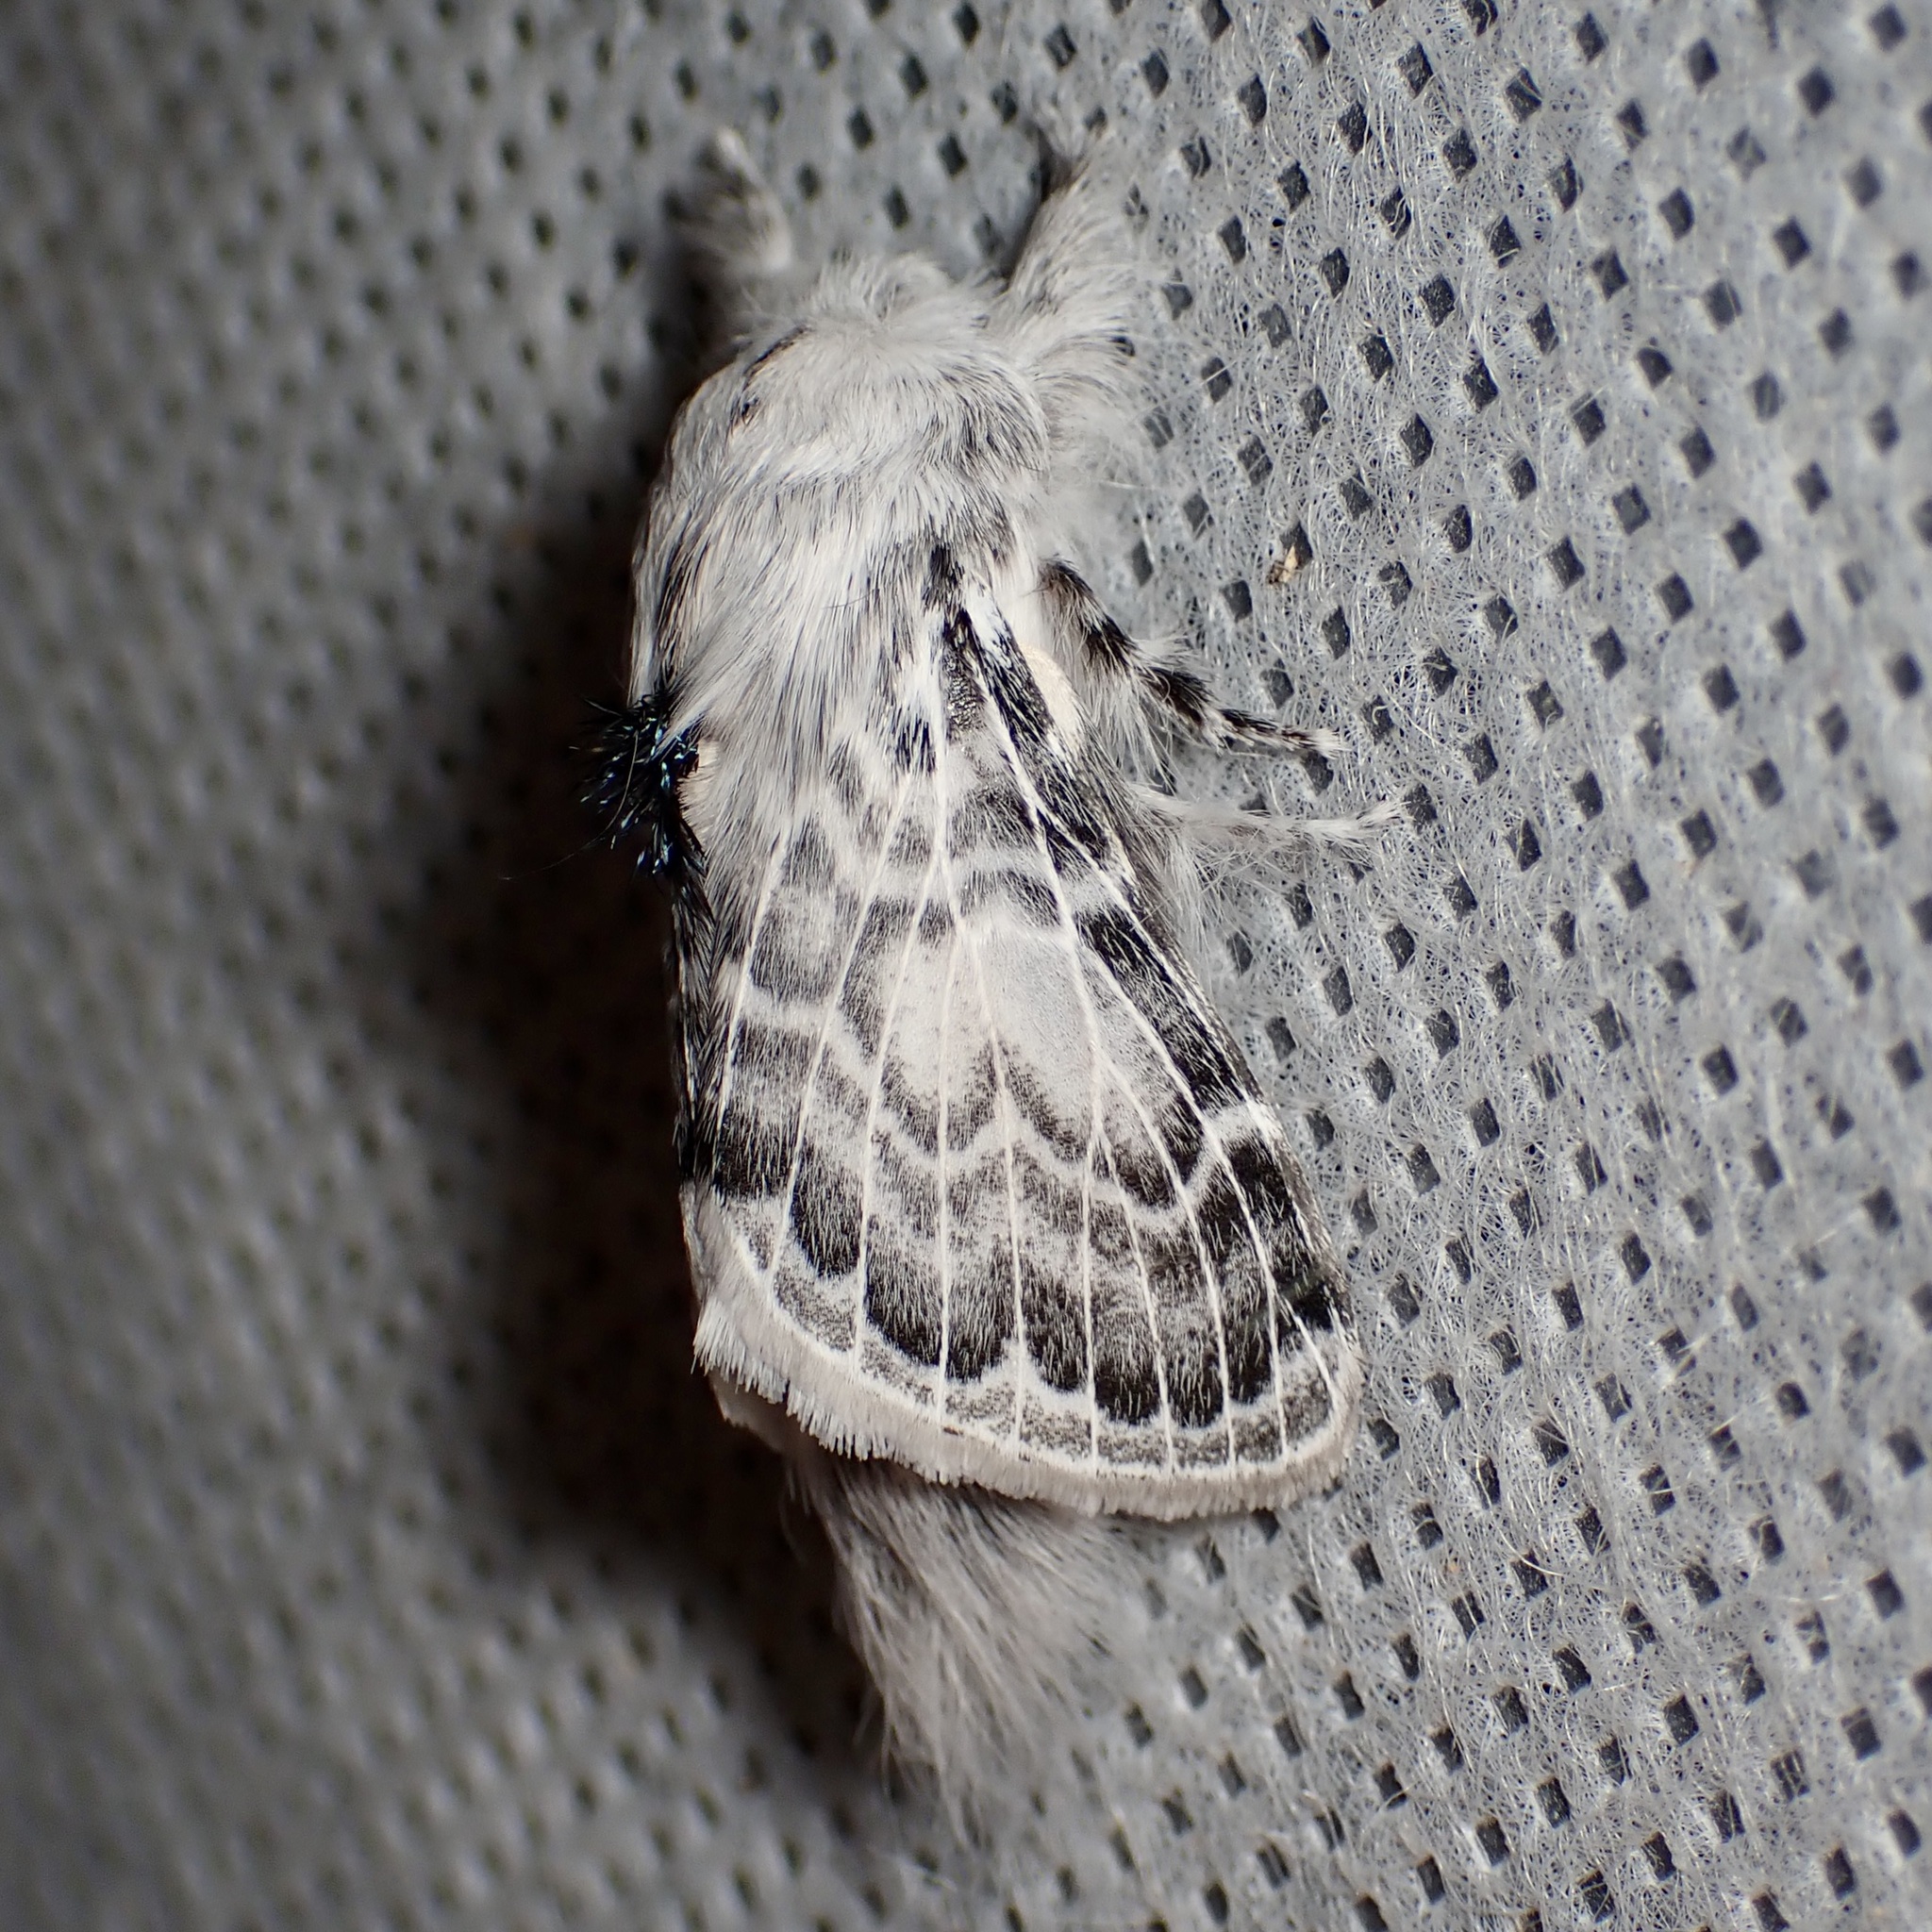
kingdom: Animalia
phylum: Arthropoda
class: Insecta
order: Lepidoptera
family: Lasiocampidae
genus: Apotolype
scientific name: Apotolype brevicrista
